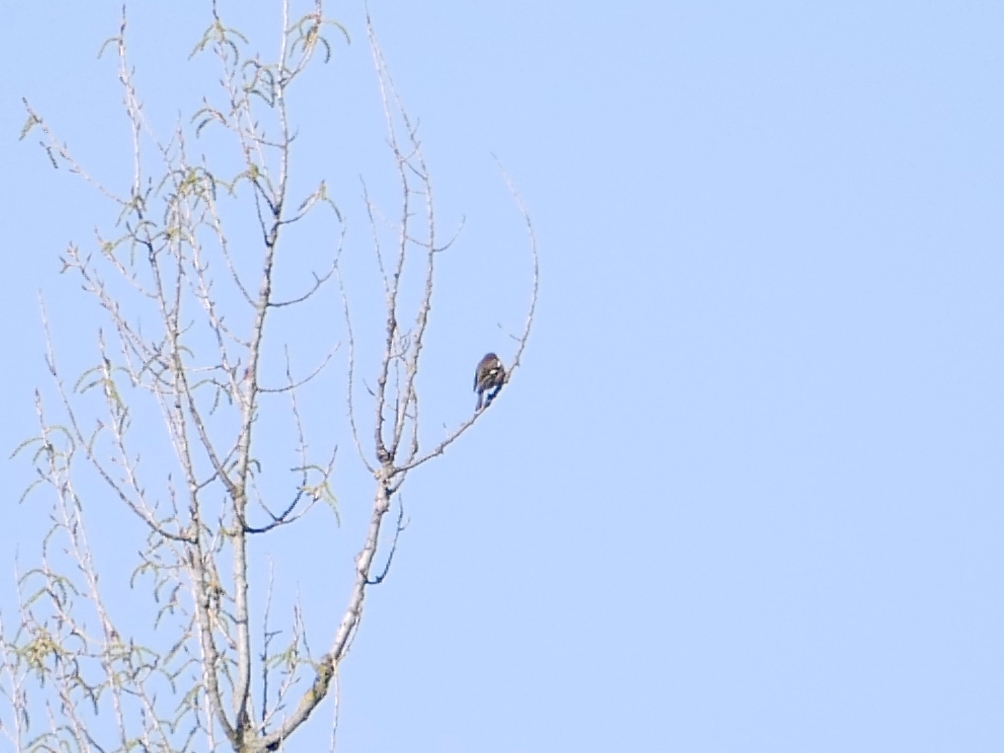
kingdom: Animalia
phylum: Chordata
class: Aves
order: Passeriformes
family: Fringillidae
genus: Fringilla
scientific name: Fringilla coelebs
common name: Common chaffinch
